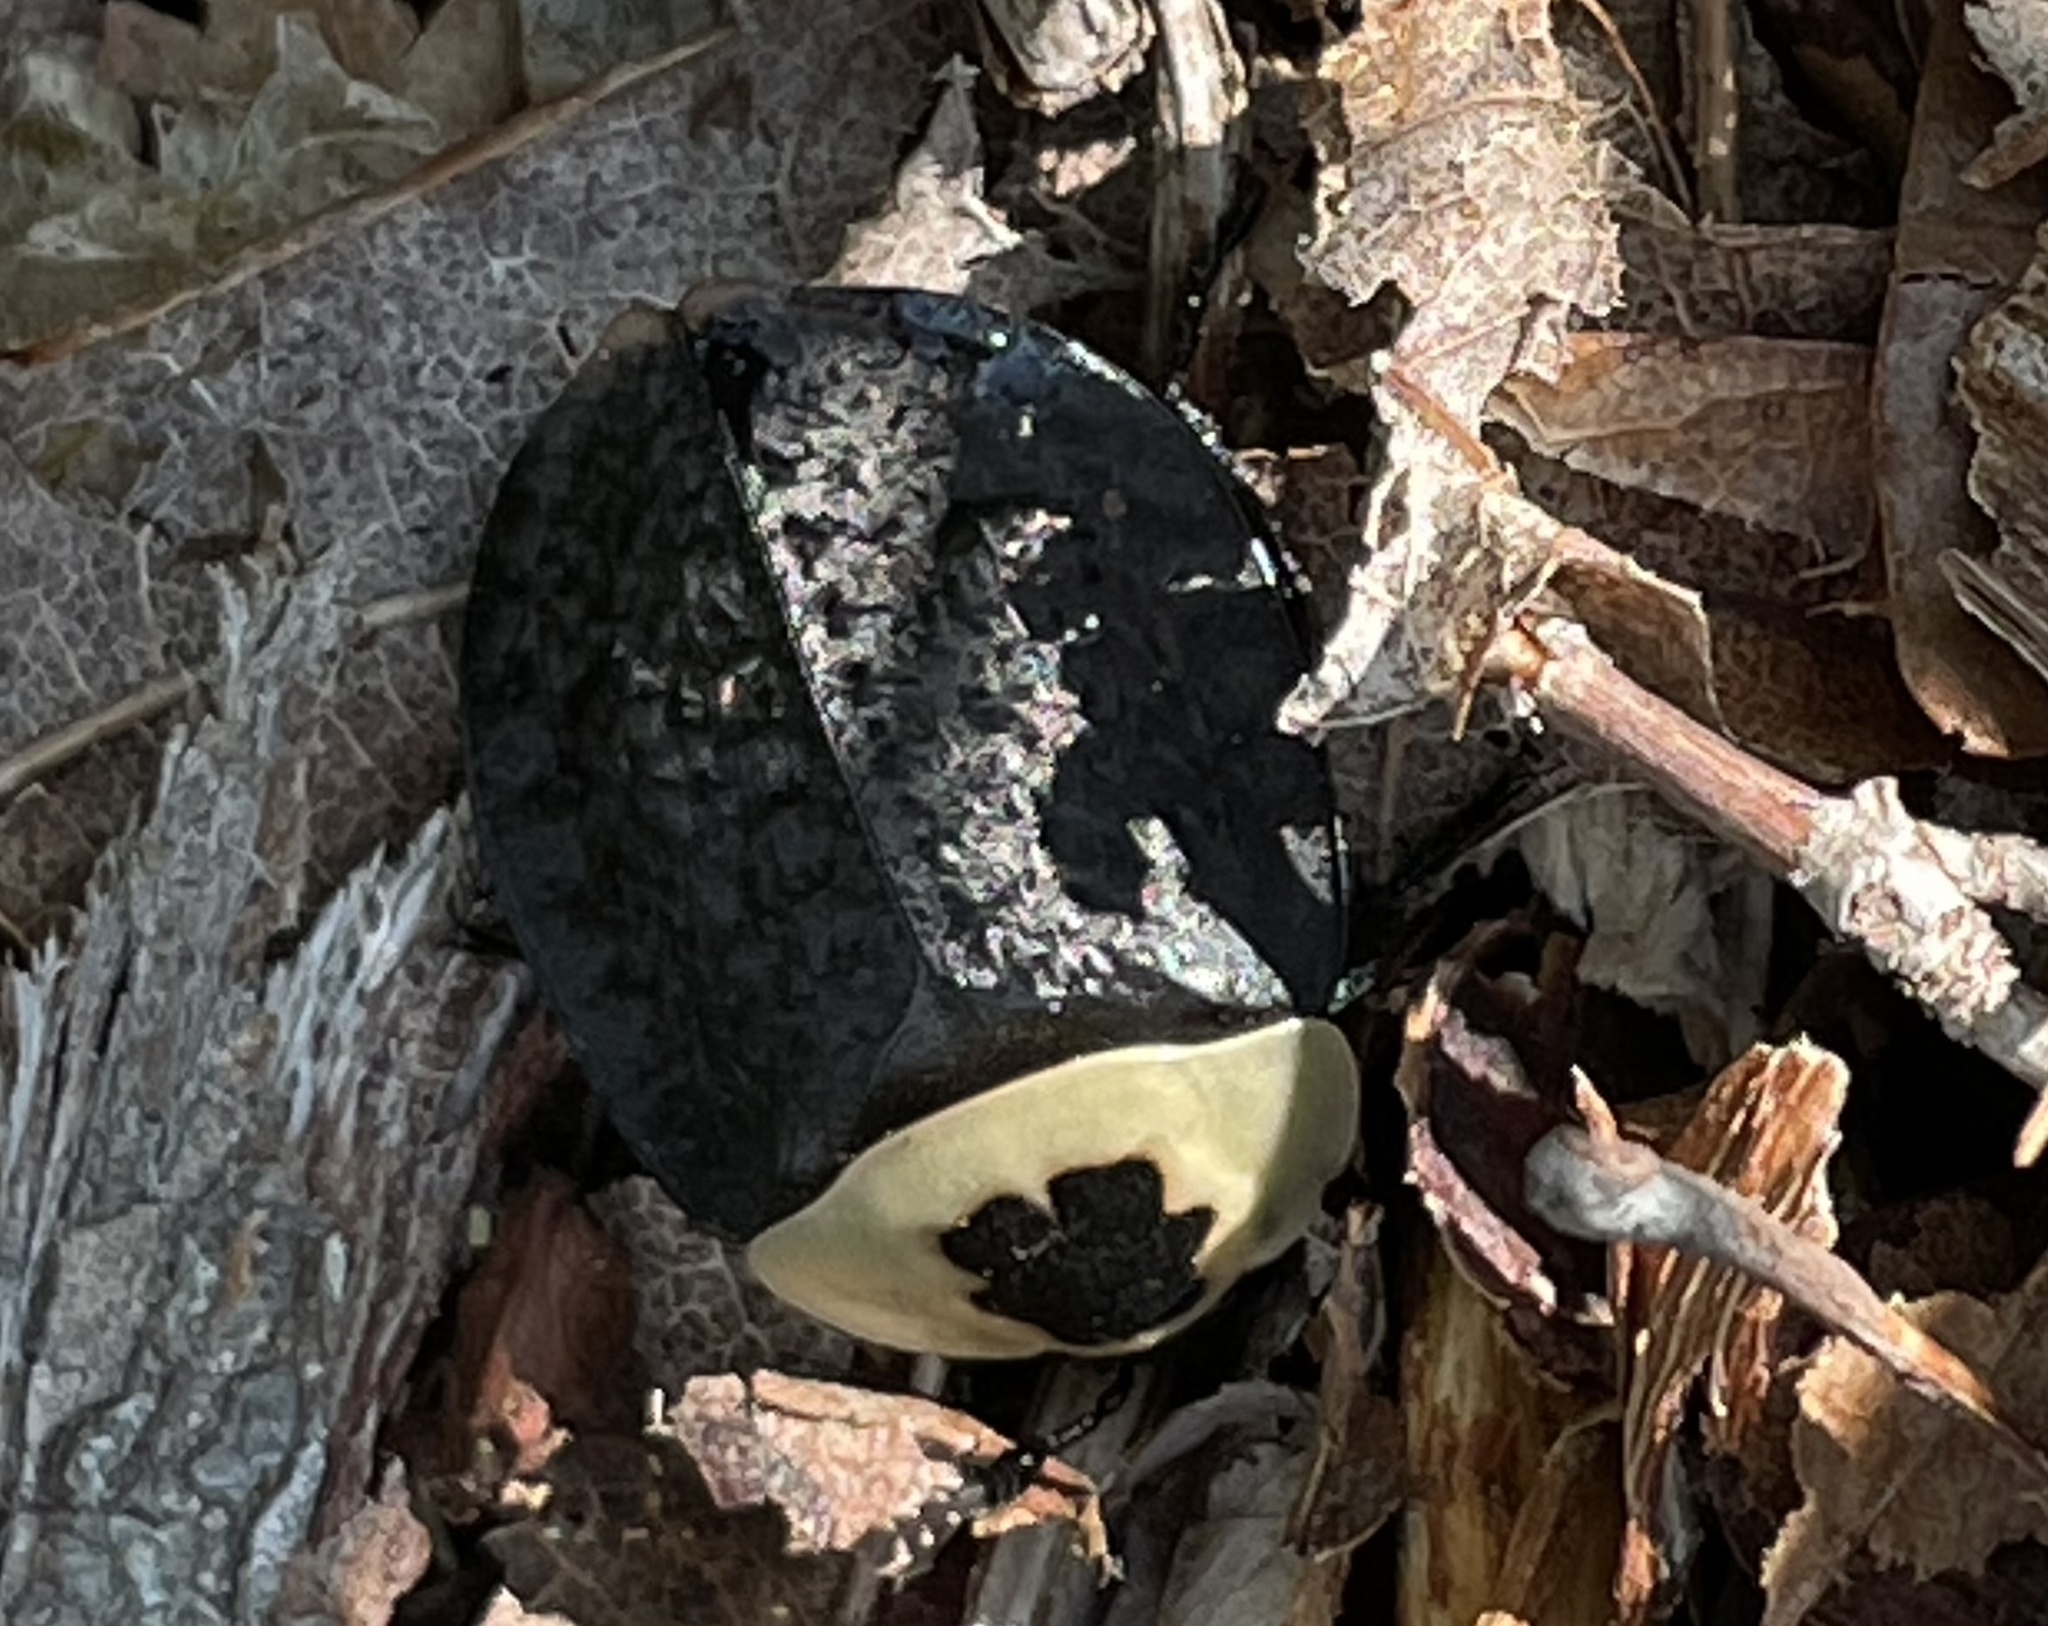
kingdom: Animalia
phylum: Arthropoda
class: Insecta
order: Coleoptera
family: Staphylinidae
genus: Necrophila
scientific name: Necrophila americana
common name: American carrion beetle
